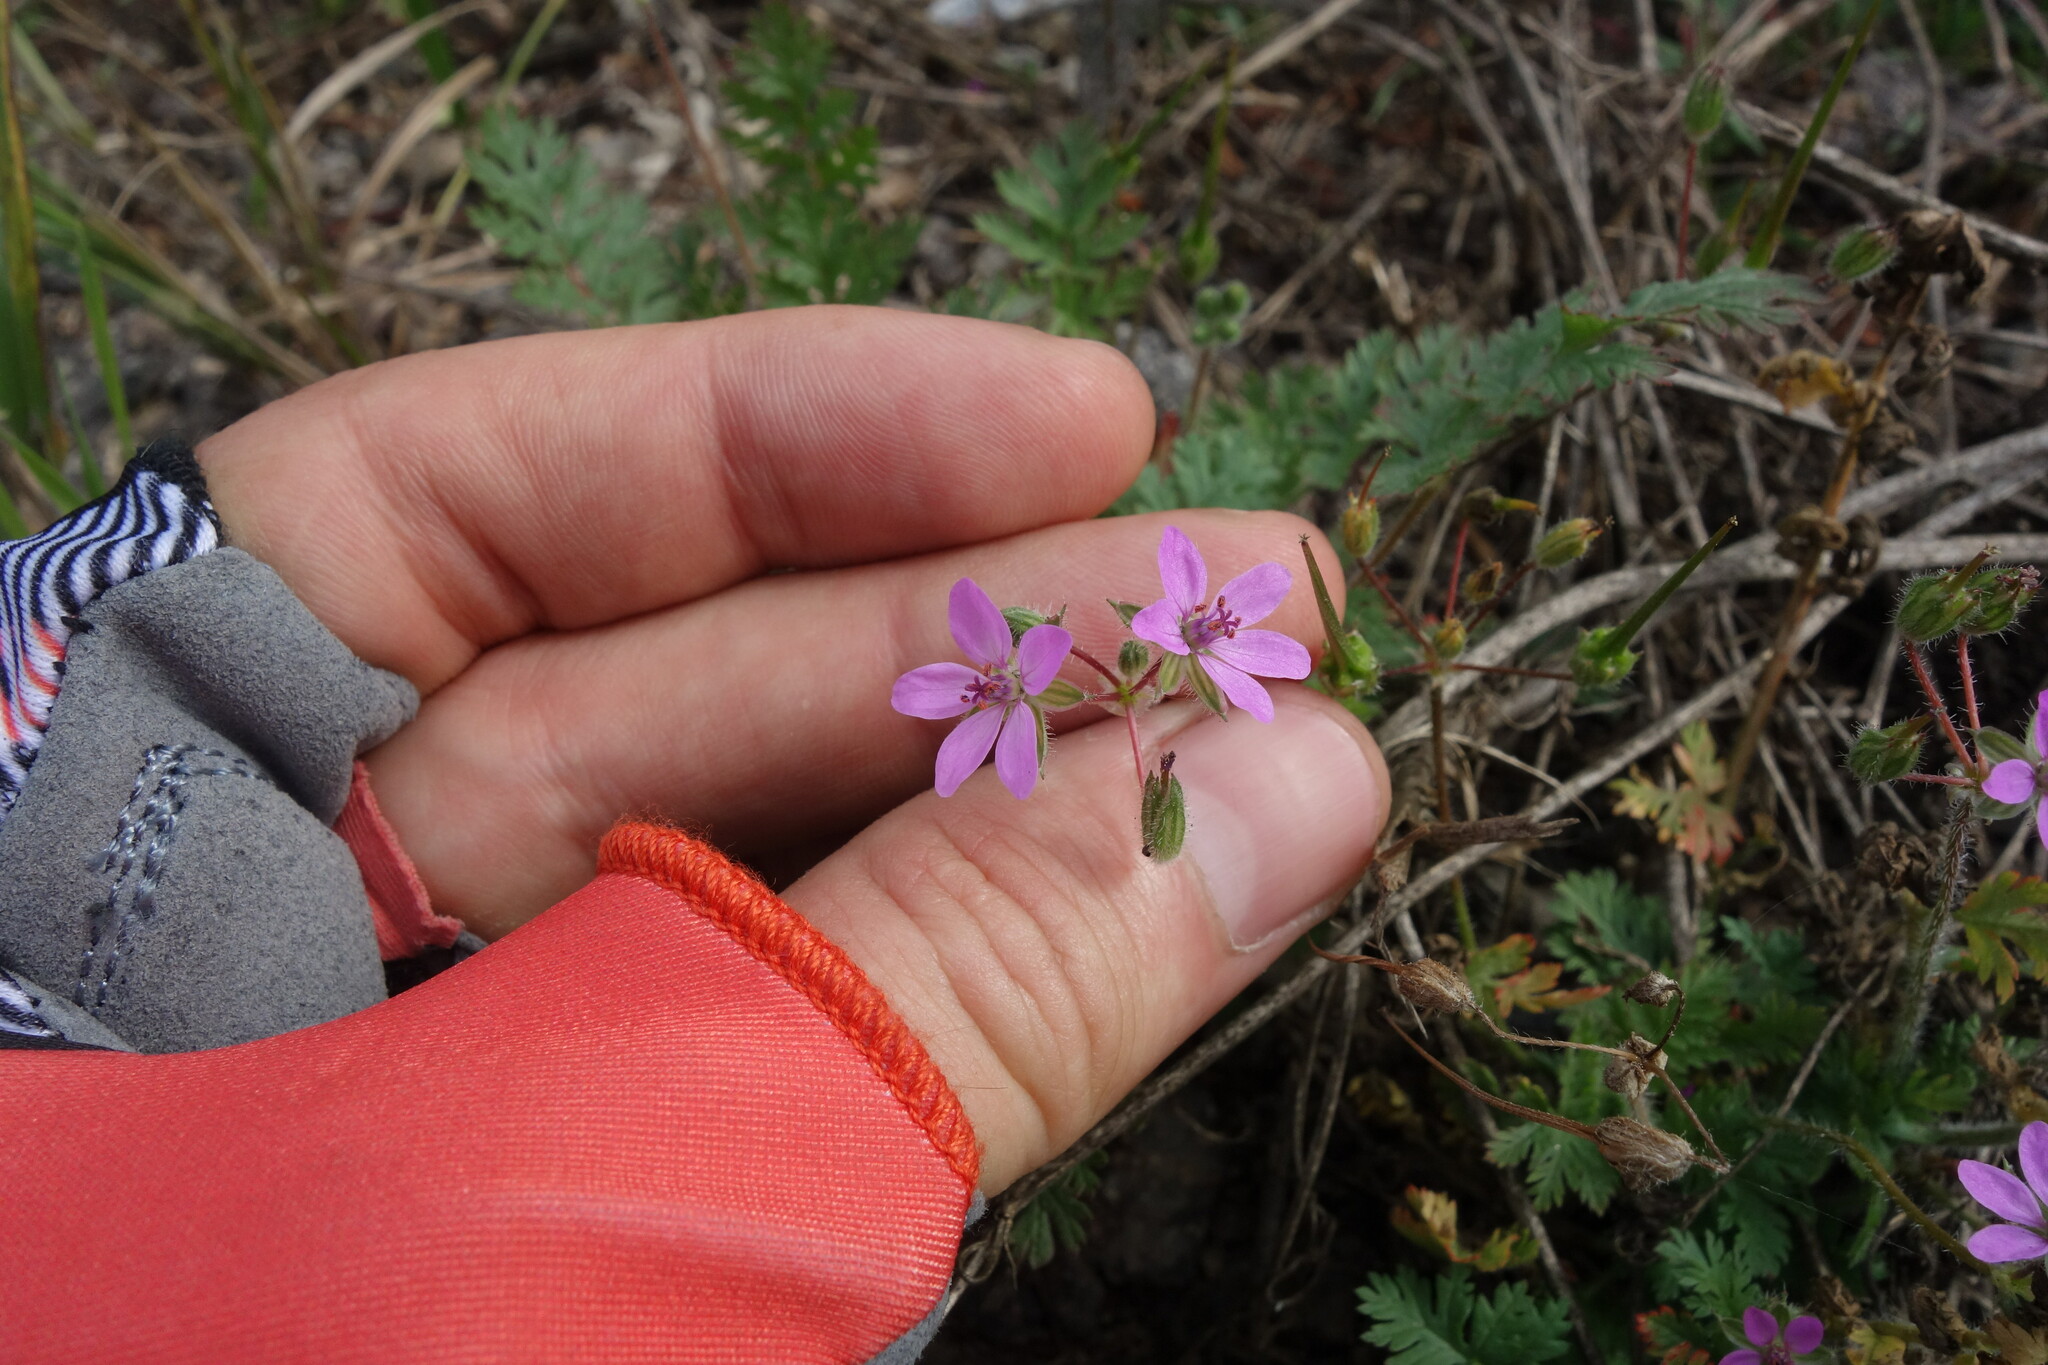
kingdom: Plantae
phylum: Tracheophyta
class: Magnoliopsida
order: Geraniales
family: Geraniaceae
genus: Erodium
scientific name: Erodium cicutarium
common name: Common stork's-bill
